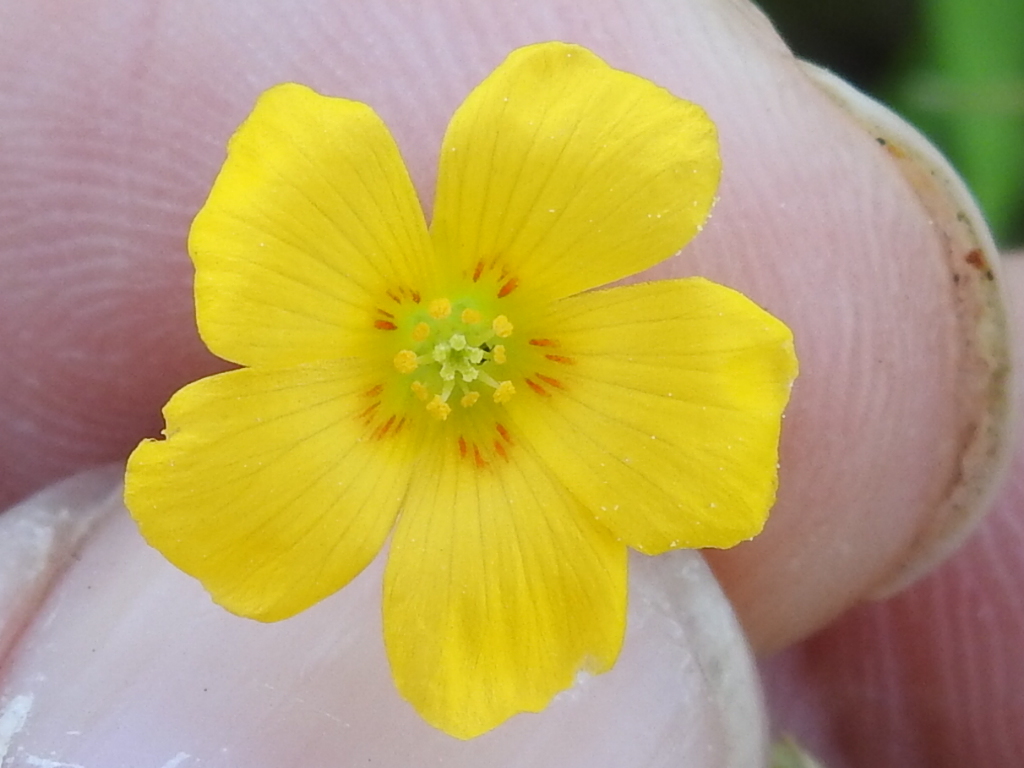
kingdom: Plantae
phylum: Tracheophyta
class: Magnoliopsida
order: Oxalidales
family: Oxalidaceae
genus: Oxalis
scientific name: Oxalis dillenii
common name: Sussex yellow-sorrel
